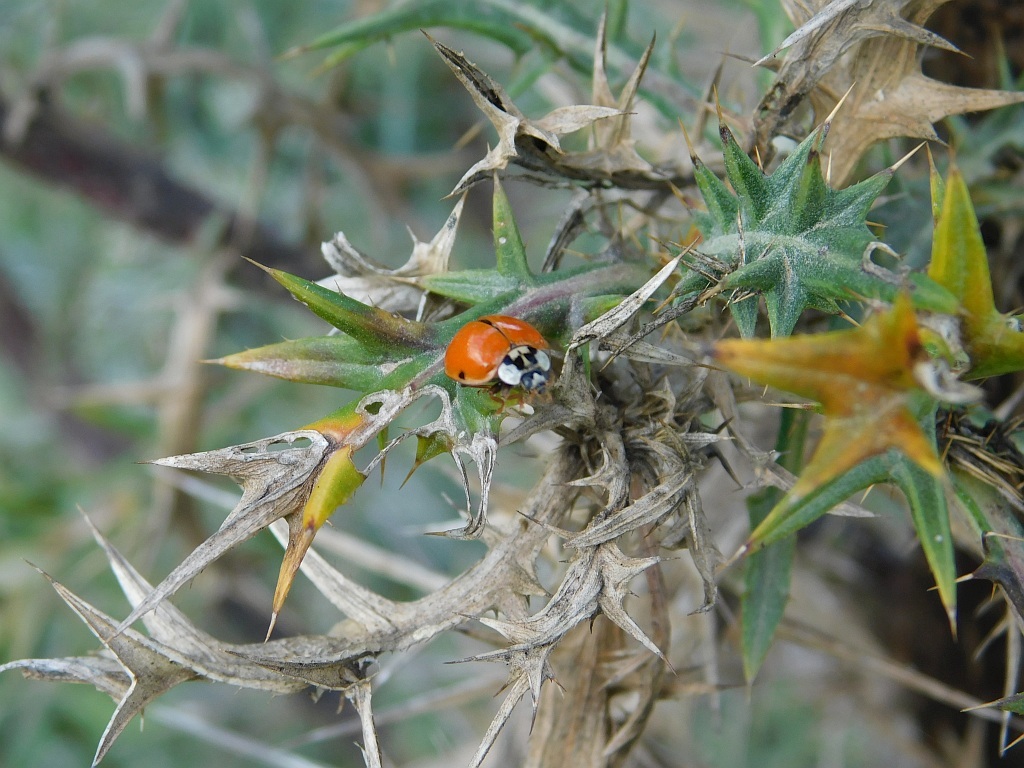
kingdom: Animalia
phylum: Arthropoda
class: Insecta
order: Coleoptera
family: Coccinellidae
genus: Harmonia
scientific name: Harmonia axyridis
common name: Harlequin ladybird
